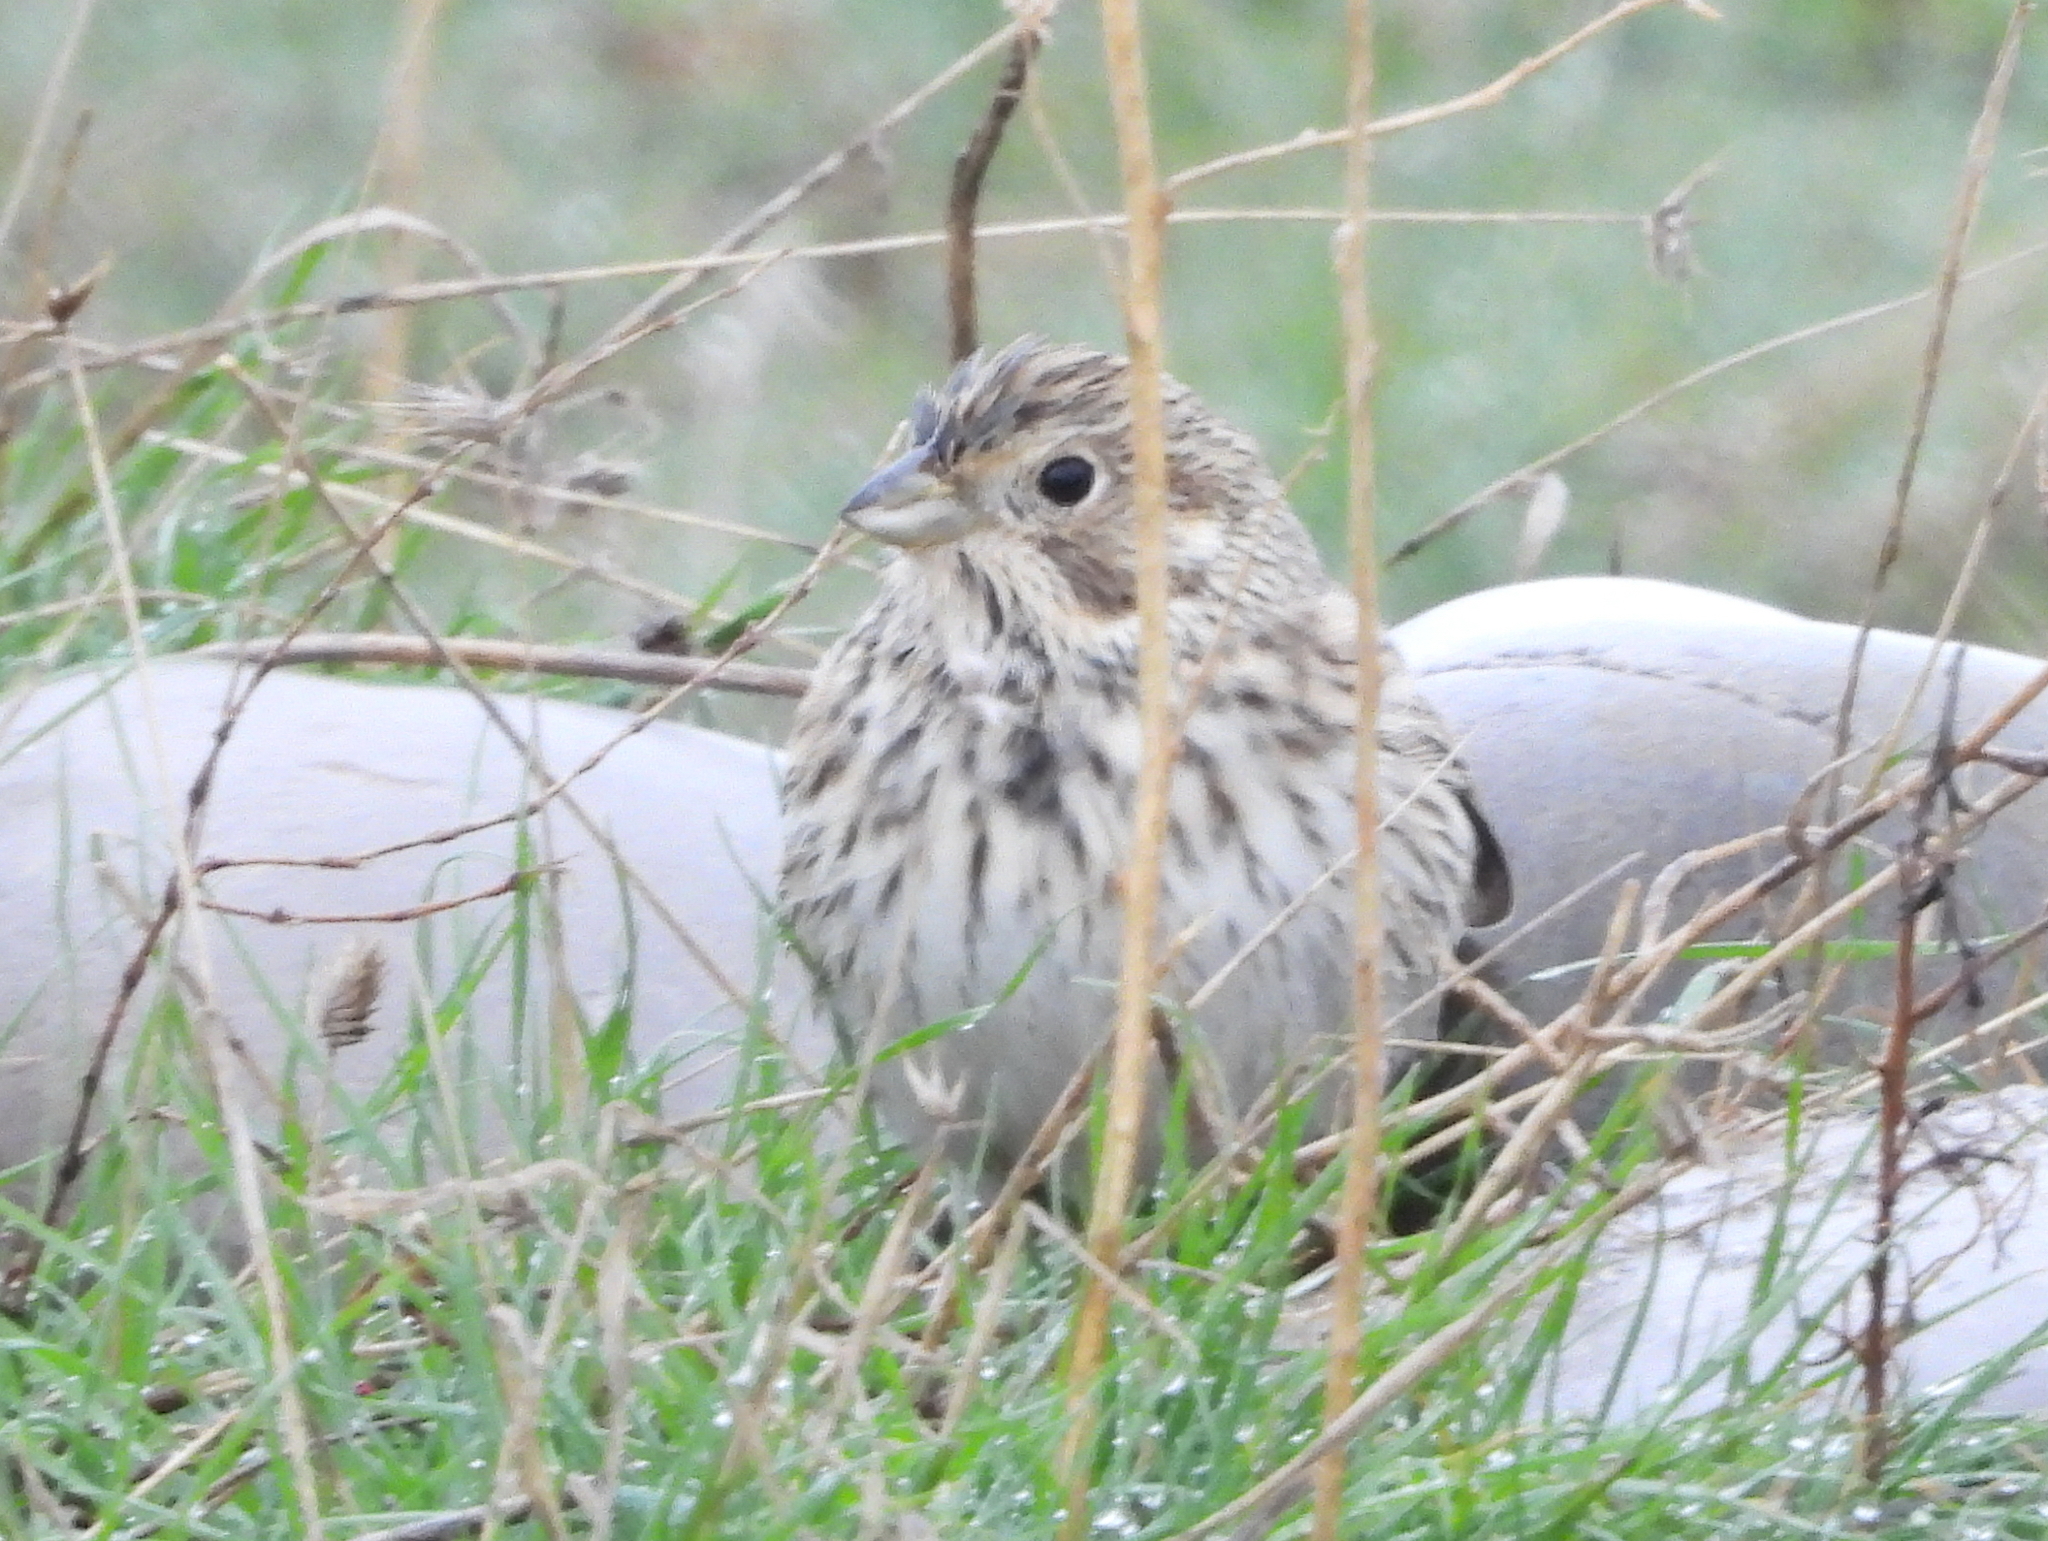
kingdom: Animalia
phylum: Chordata
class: Aves
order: Passeriformes
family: Emberizidae
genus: Emberiza
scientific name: Emberiza calandra
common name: Corn bunting
